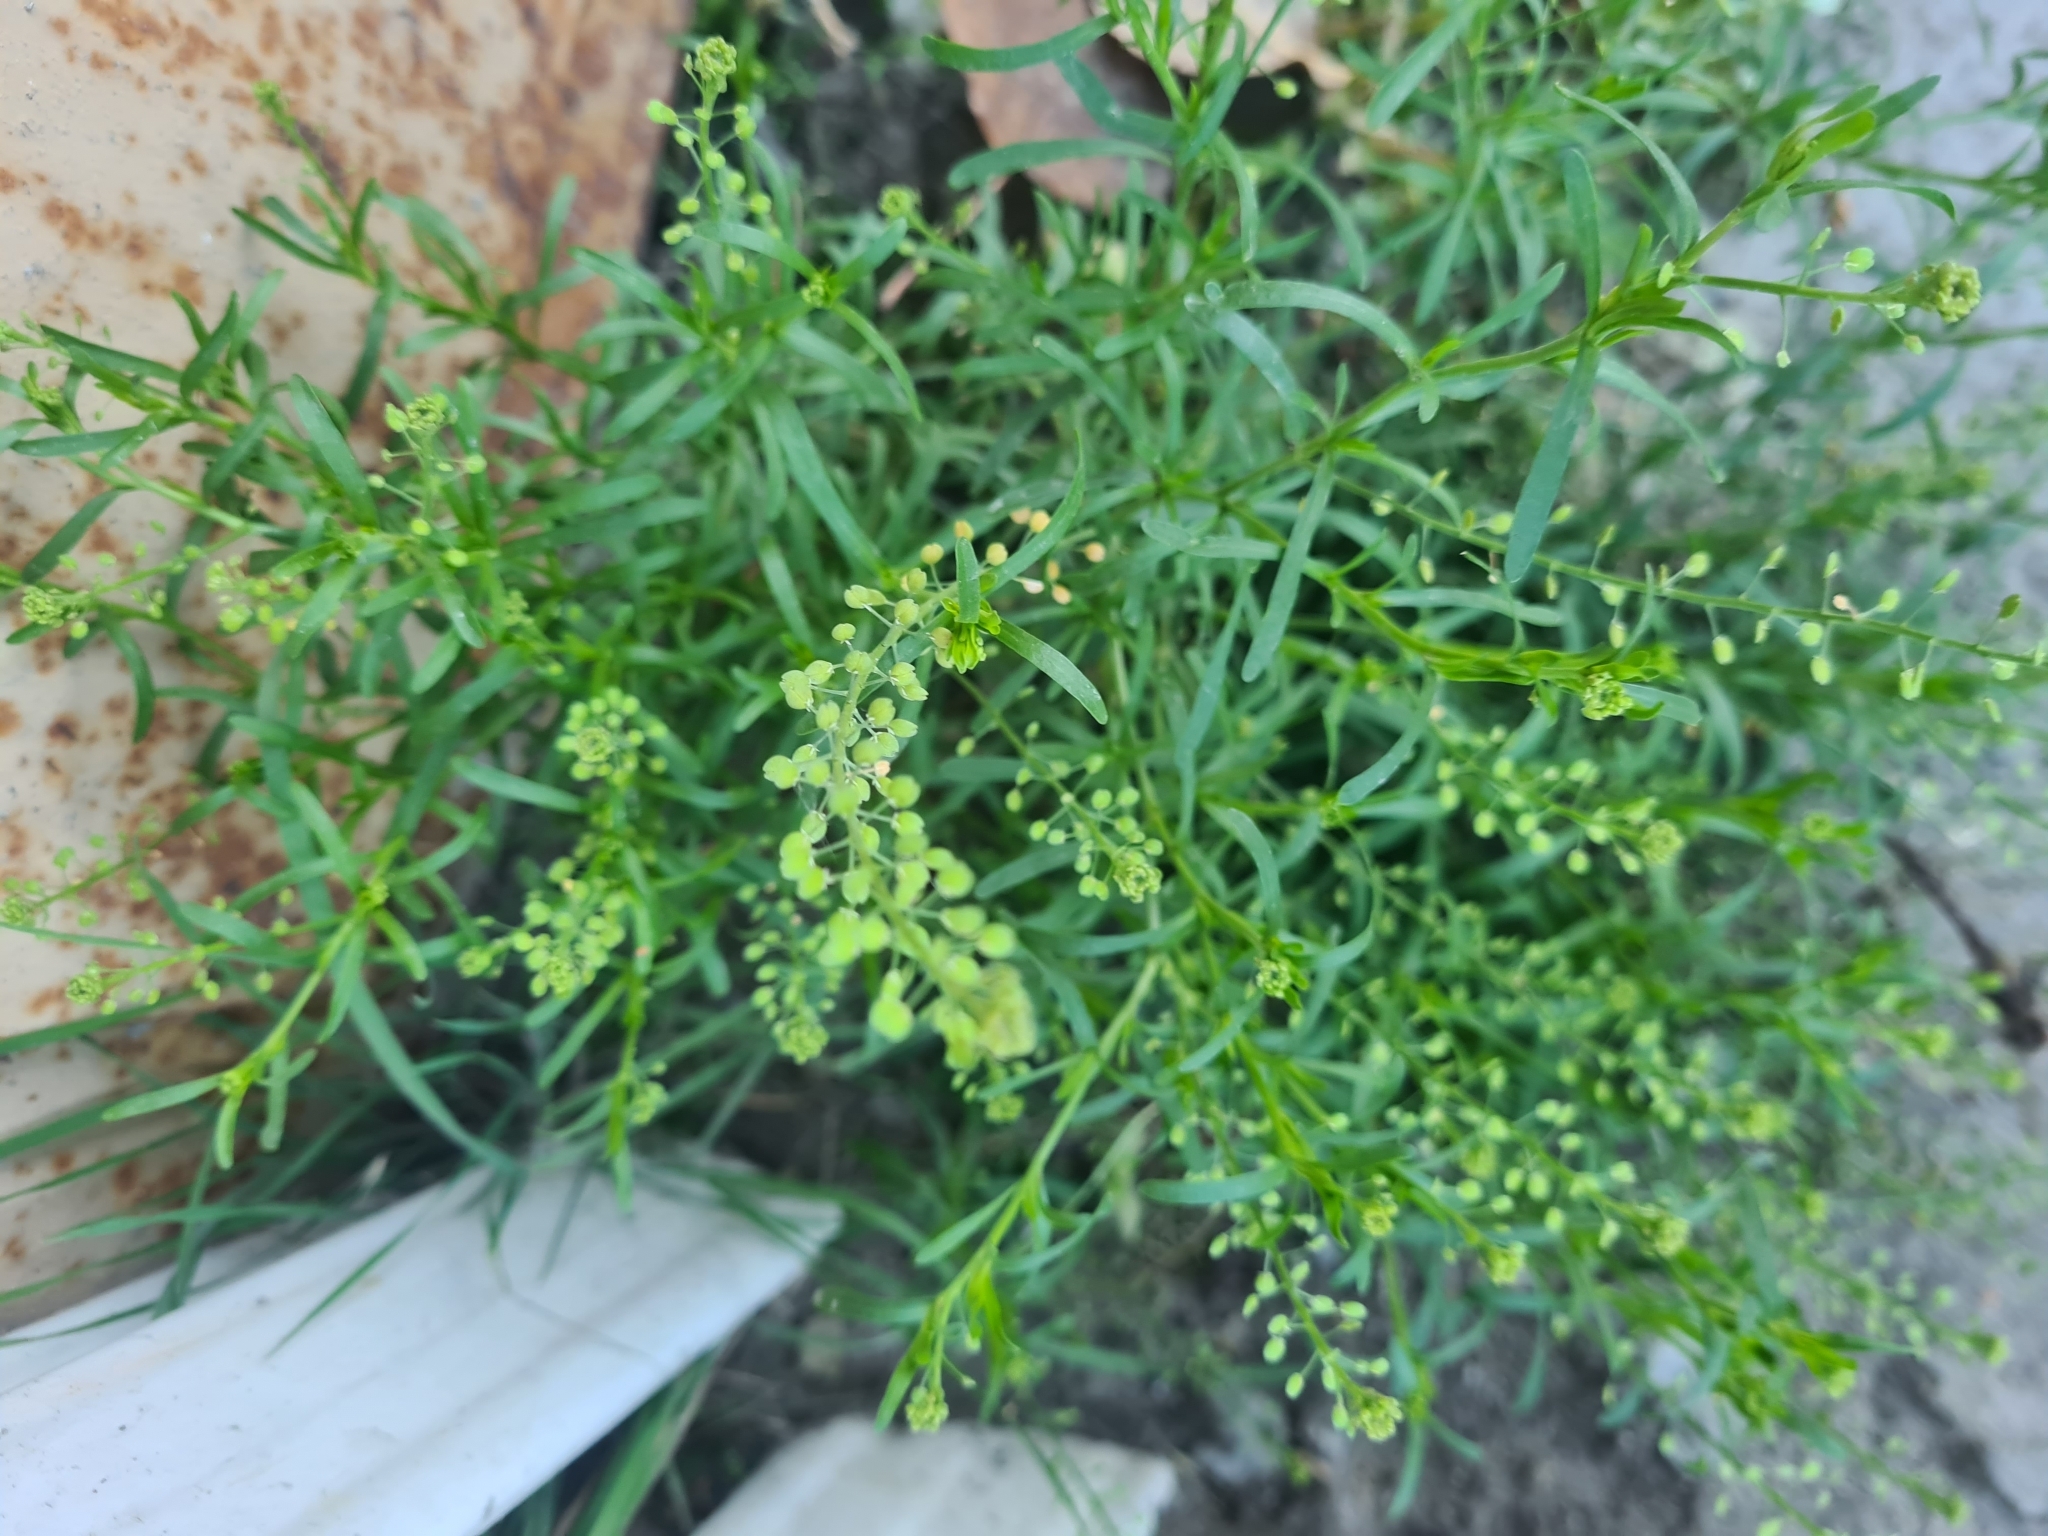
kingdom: Plantae
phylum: Tracheophyta
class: Magnoliopsida
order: Brassicales
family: Brassicaceae
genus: Lepidium
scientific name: Lepidium ruderale
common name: Narrow-leaved pepperwort
